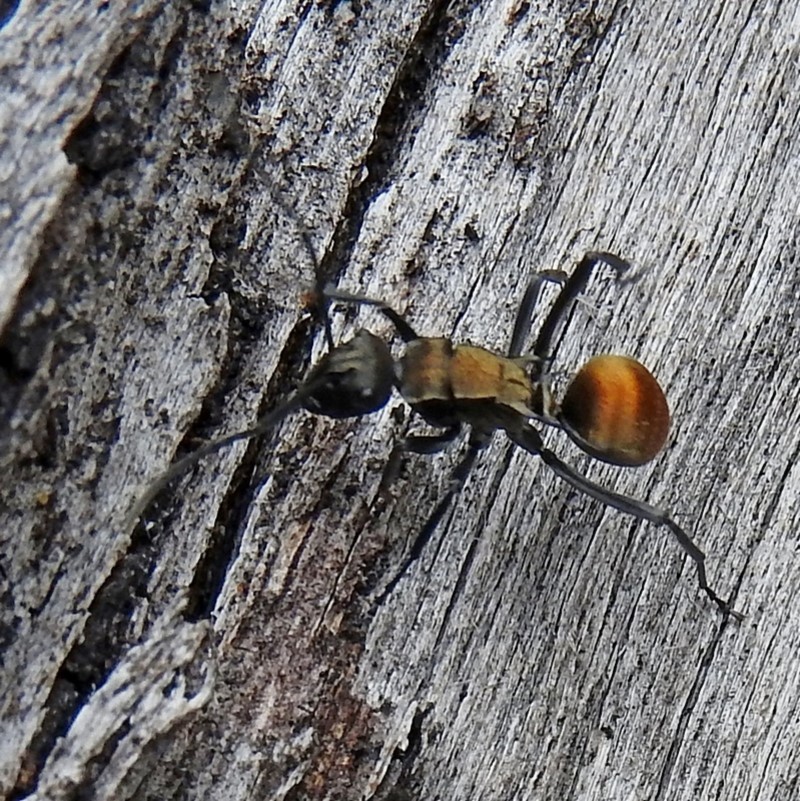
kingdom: Animalia
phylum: Arthropoda
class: Insecta
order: Hymenoptera
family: Formicidae
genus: Polyrhachis
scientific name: Polyrhachis ammon
